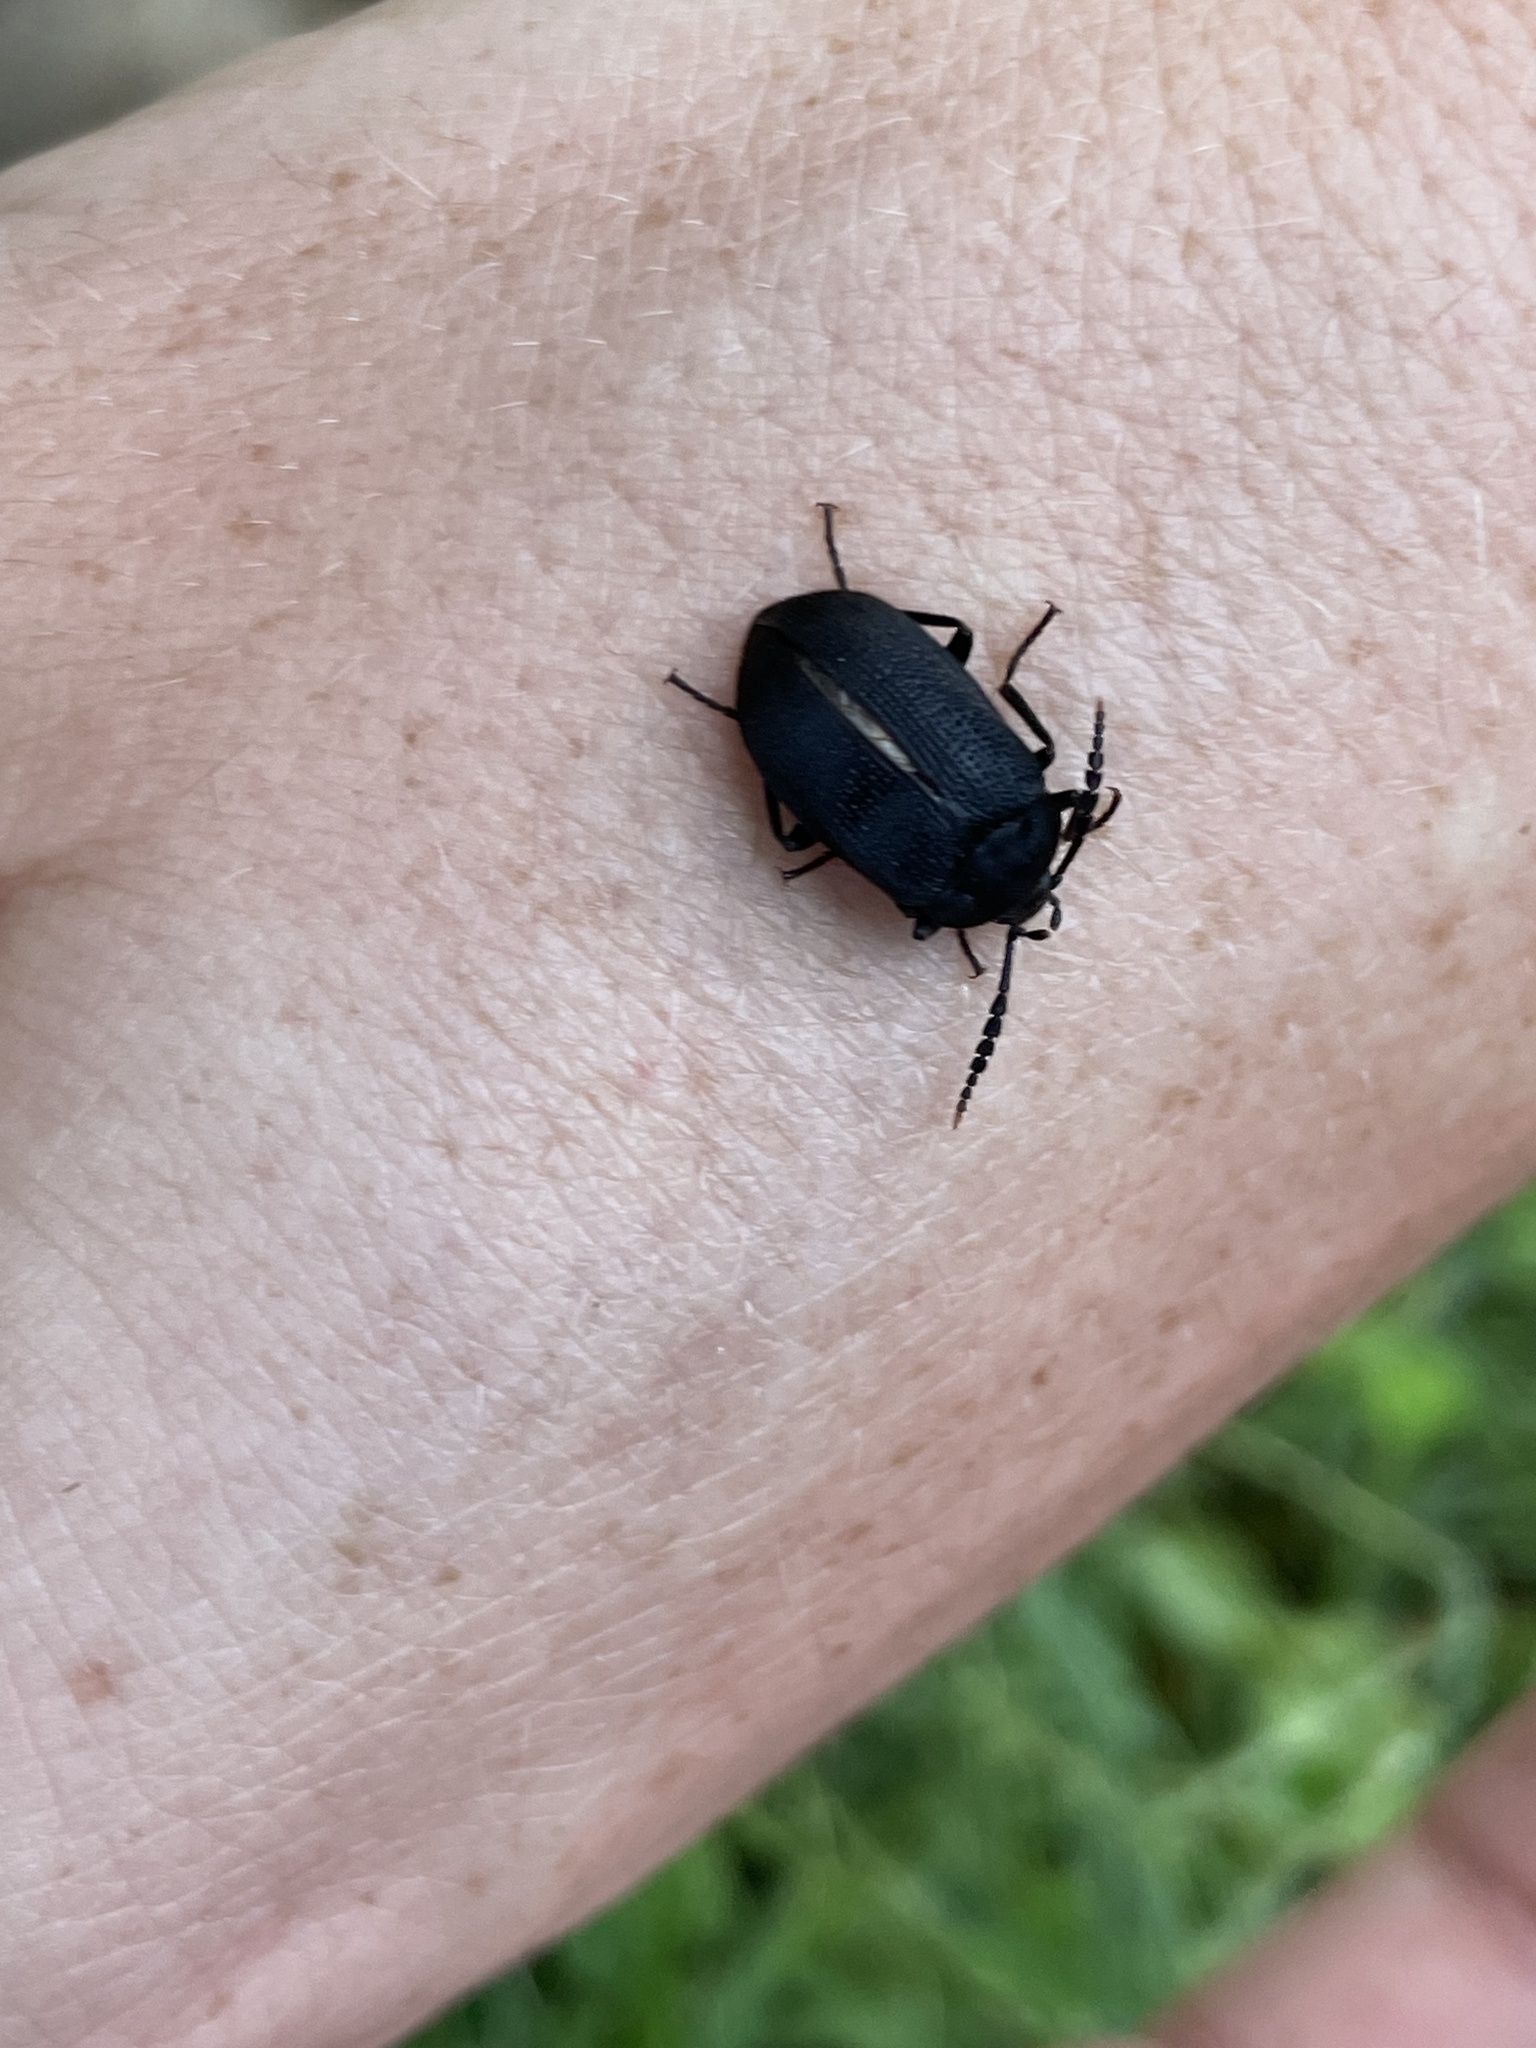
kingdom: Animalia
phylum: Arthropoda
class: Insecta
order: Coleoptera
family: Tetratomidae
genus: Penthe
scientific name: Penthe pimelia
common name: Velvety bark beetle
